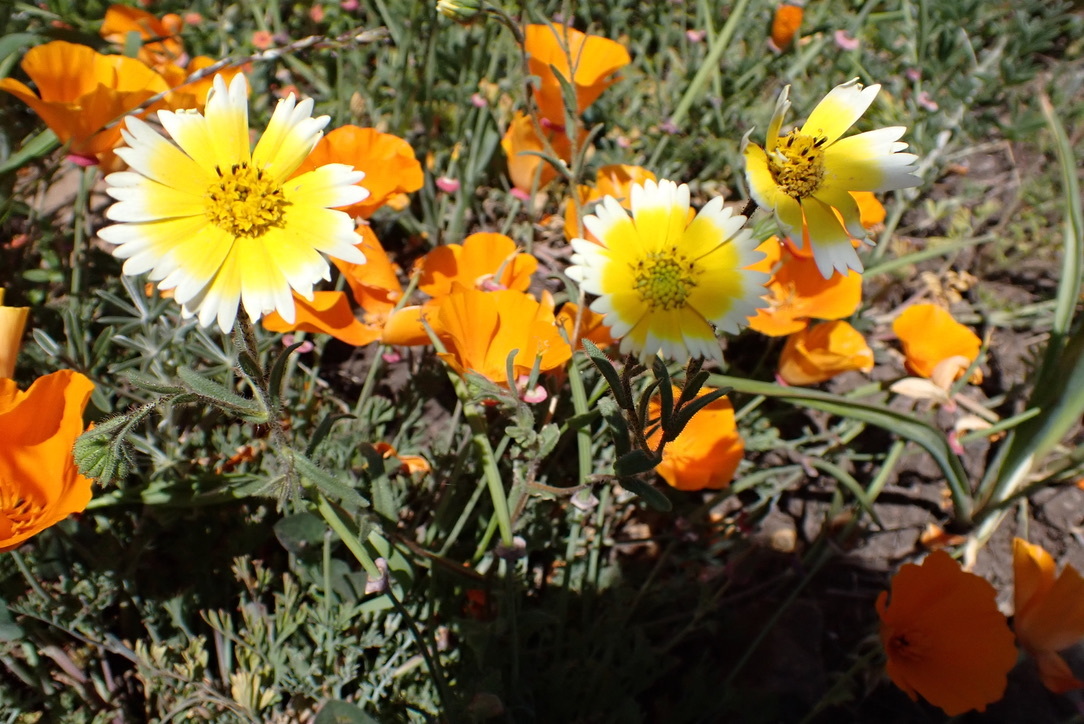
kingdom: Plantae
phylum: Tracheophyta
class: Magnoliopsida
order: Ranunculales
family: Papaveraceae
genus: Eschscholzia
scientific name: Eschscholzia californica
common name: California poppy
